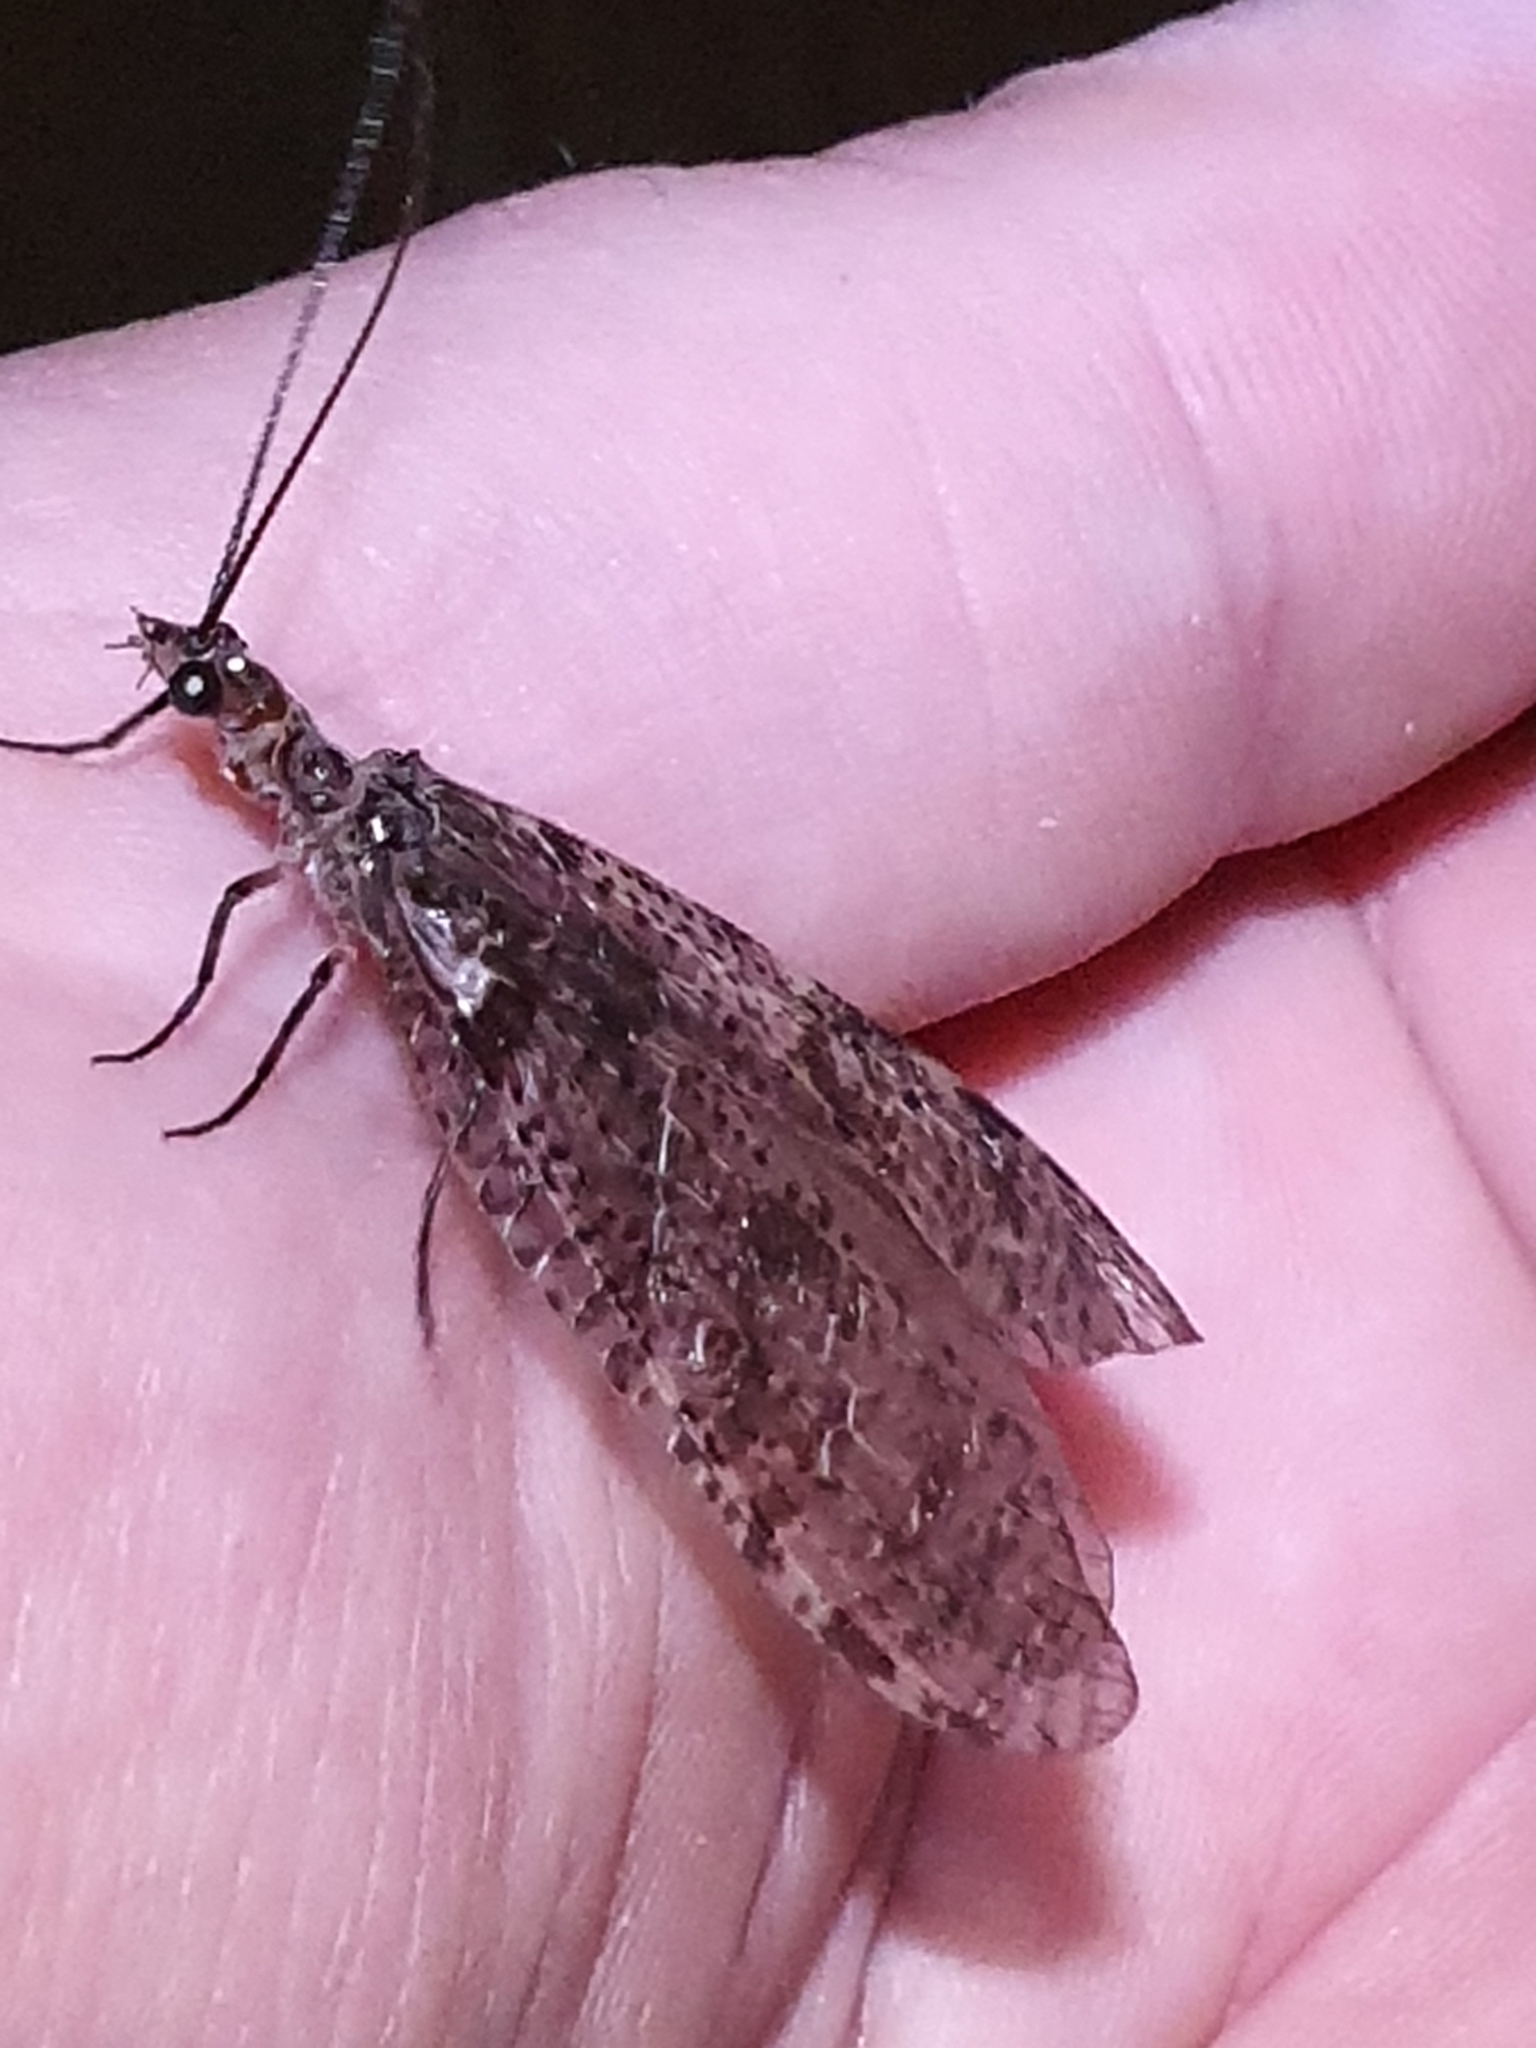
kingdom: Animalia
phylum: Arthropoda
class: Insecta
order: Megaloptera
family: Corydalidae
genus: Archichauliodes
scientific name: Archichauliodes diversus
